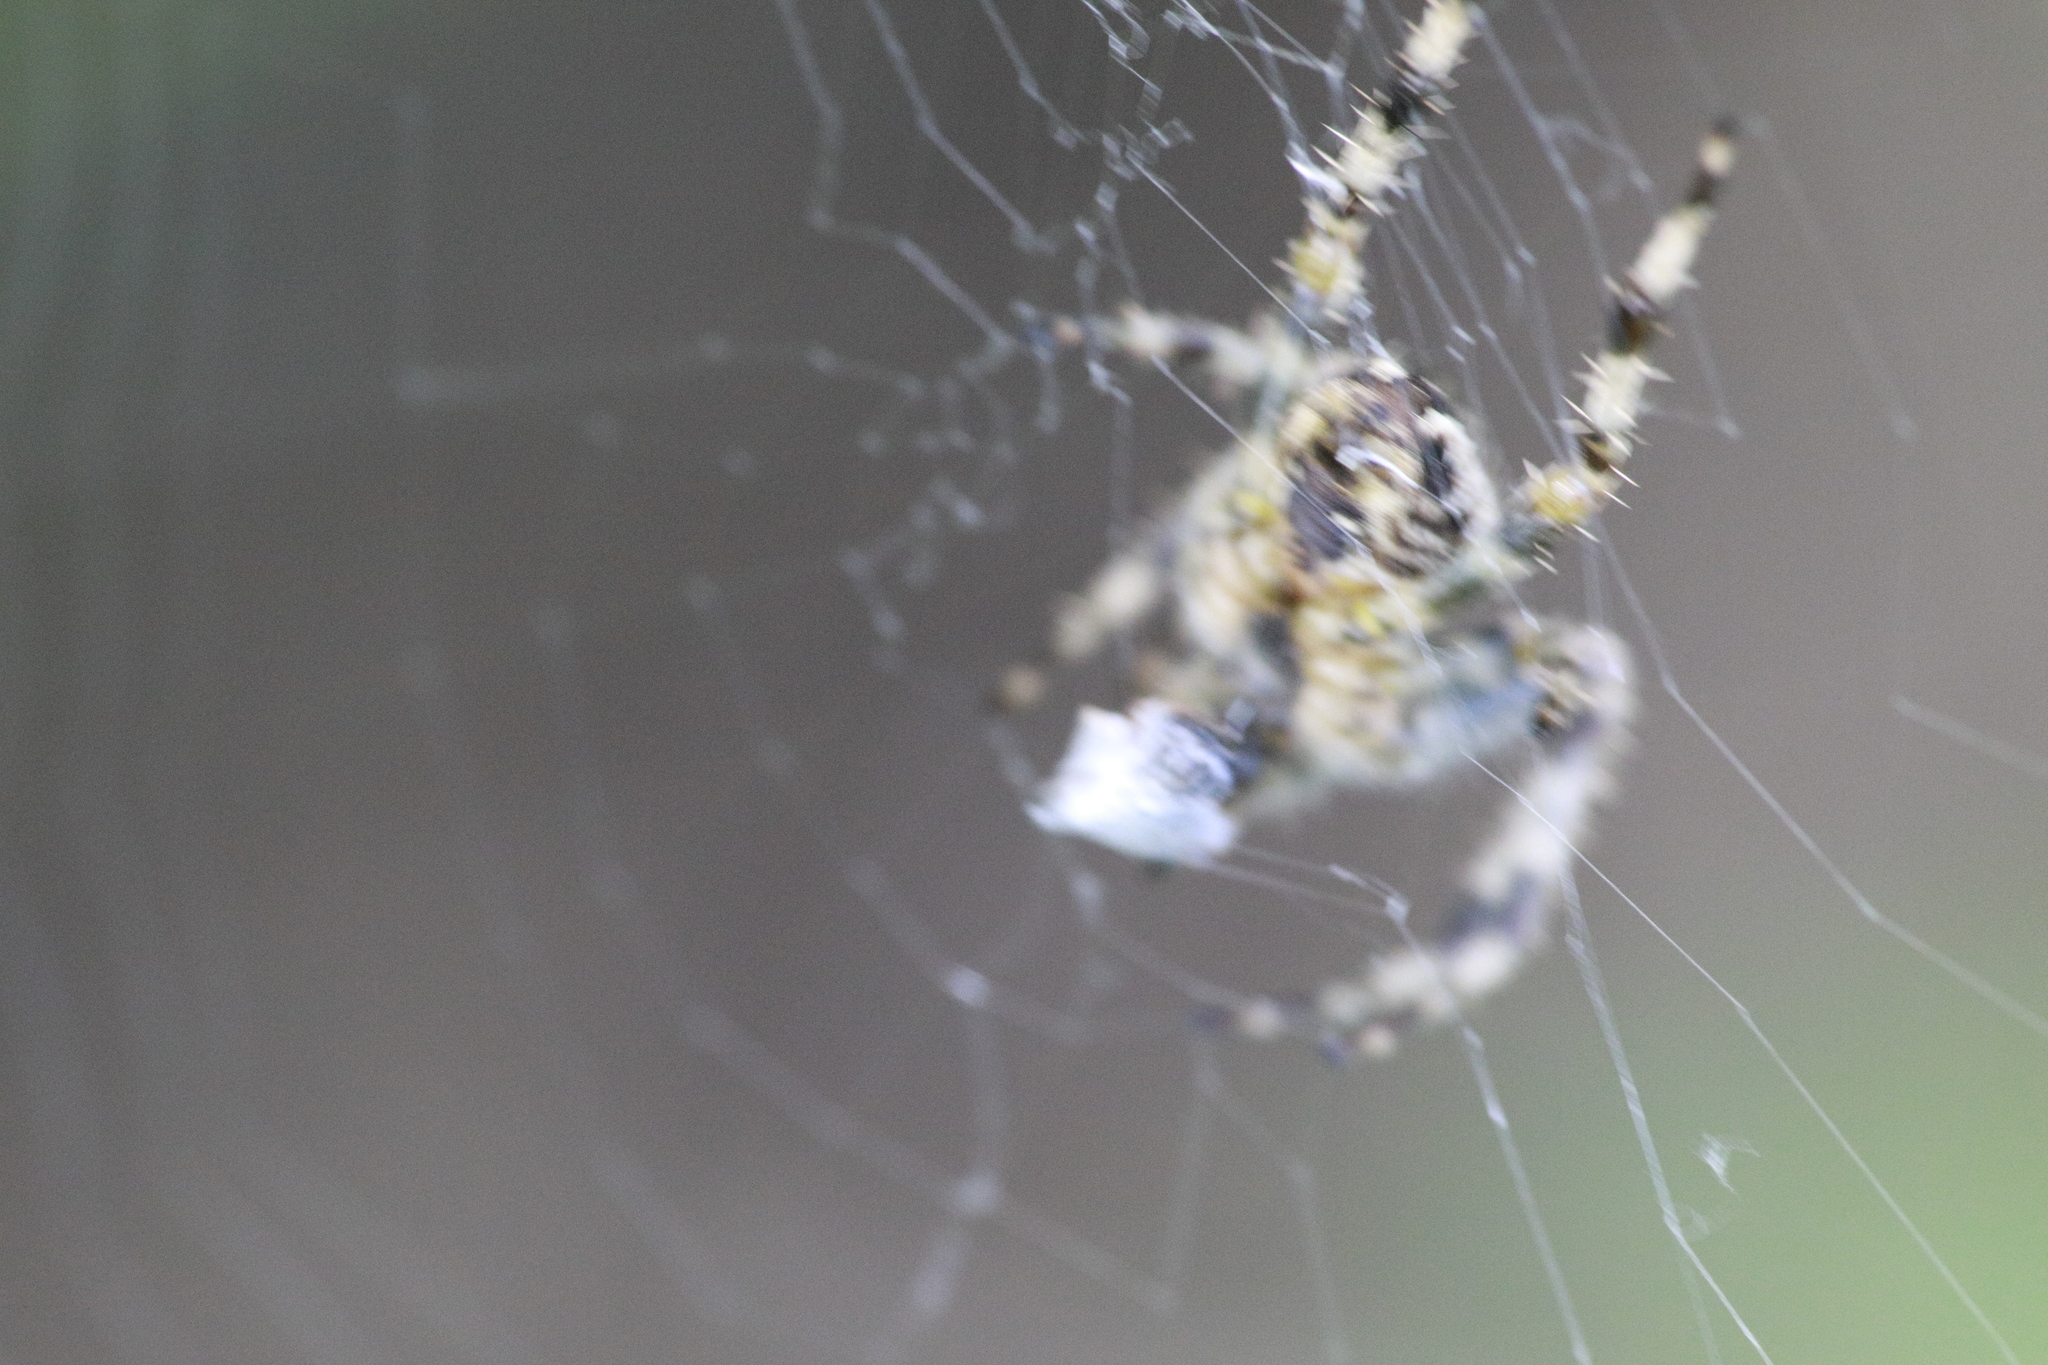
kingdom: Animalia
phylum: Arthropoda
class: Arachnida
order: Araneae
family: Araneidae
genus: Araneus
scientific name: Araneus diadematus
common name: Cross orbweaver
